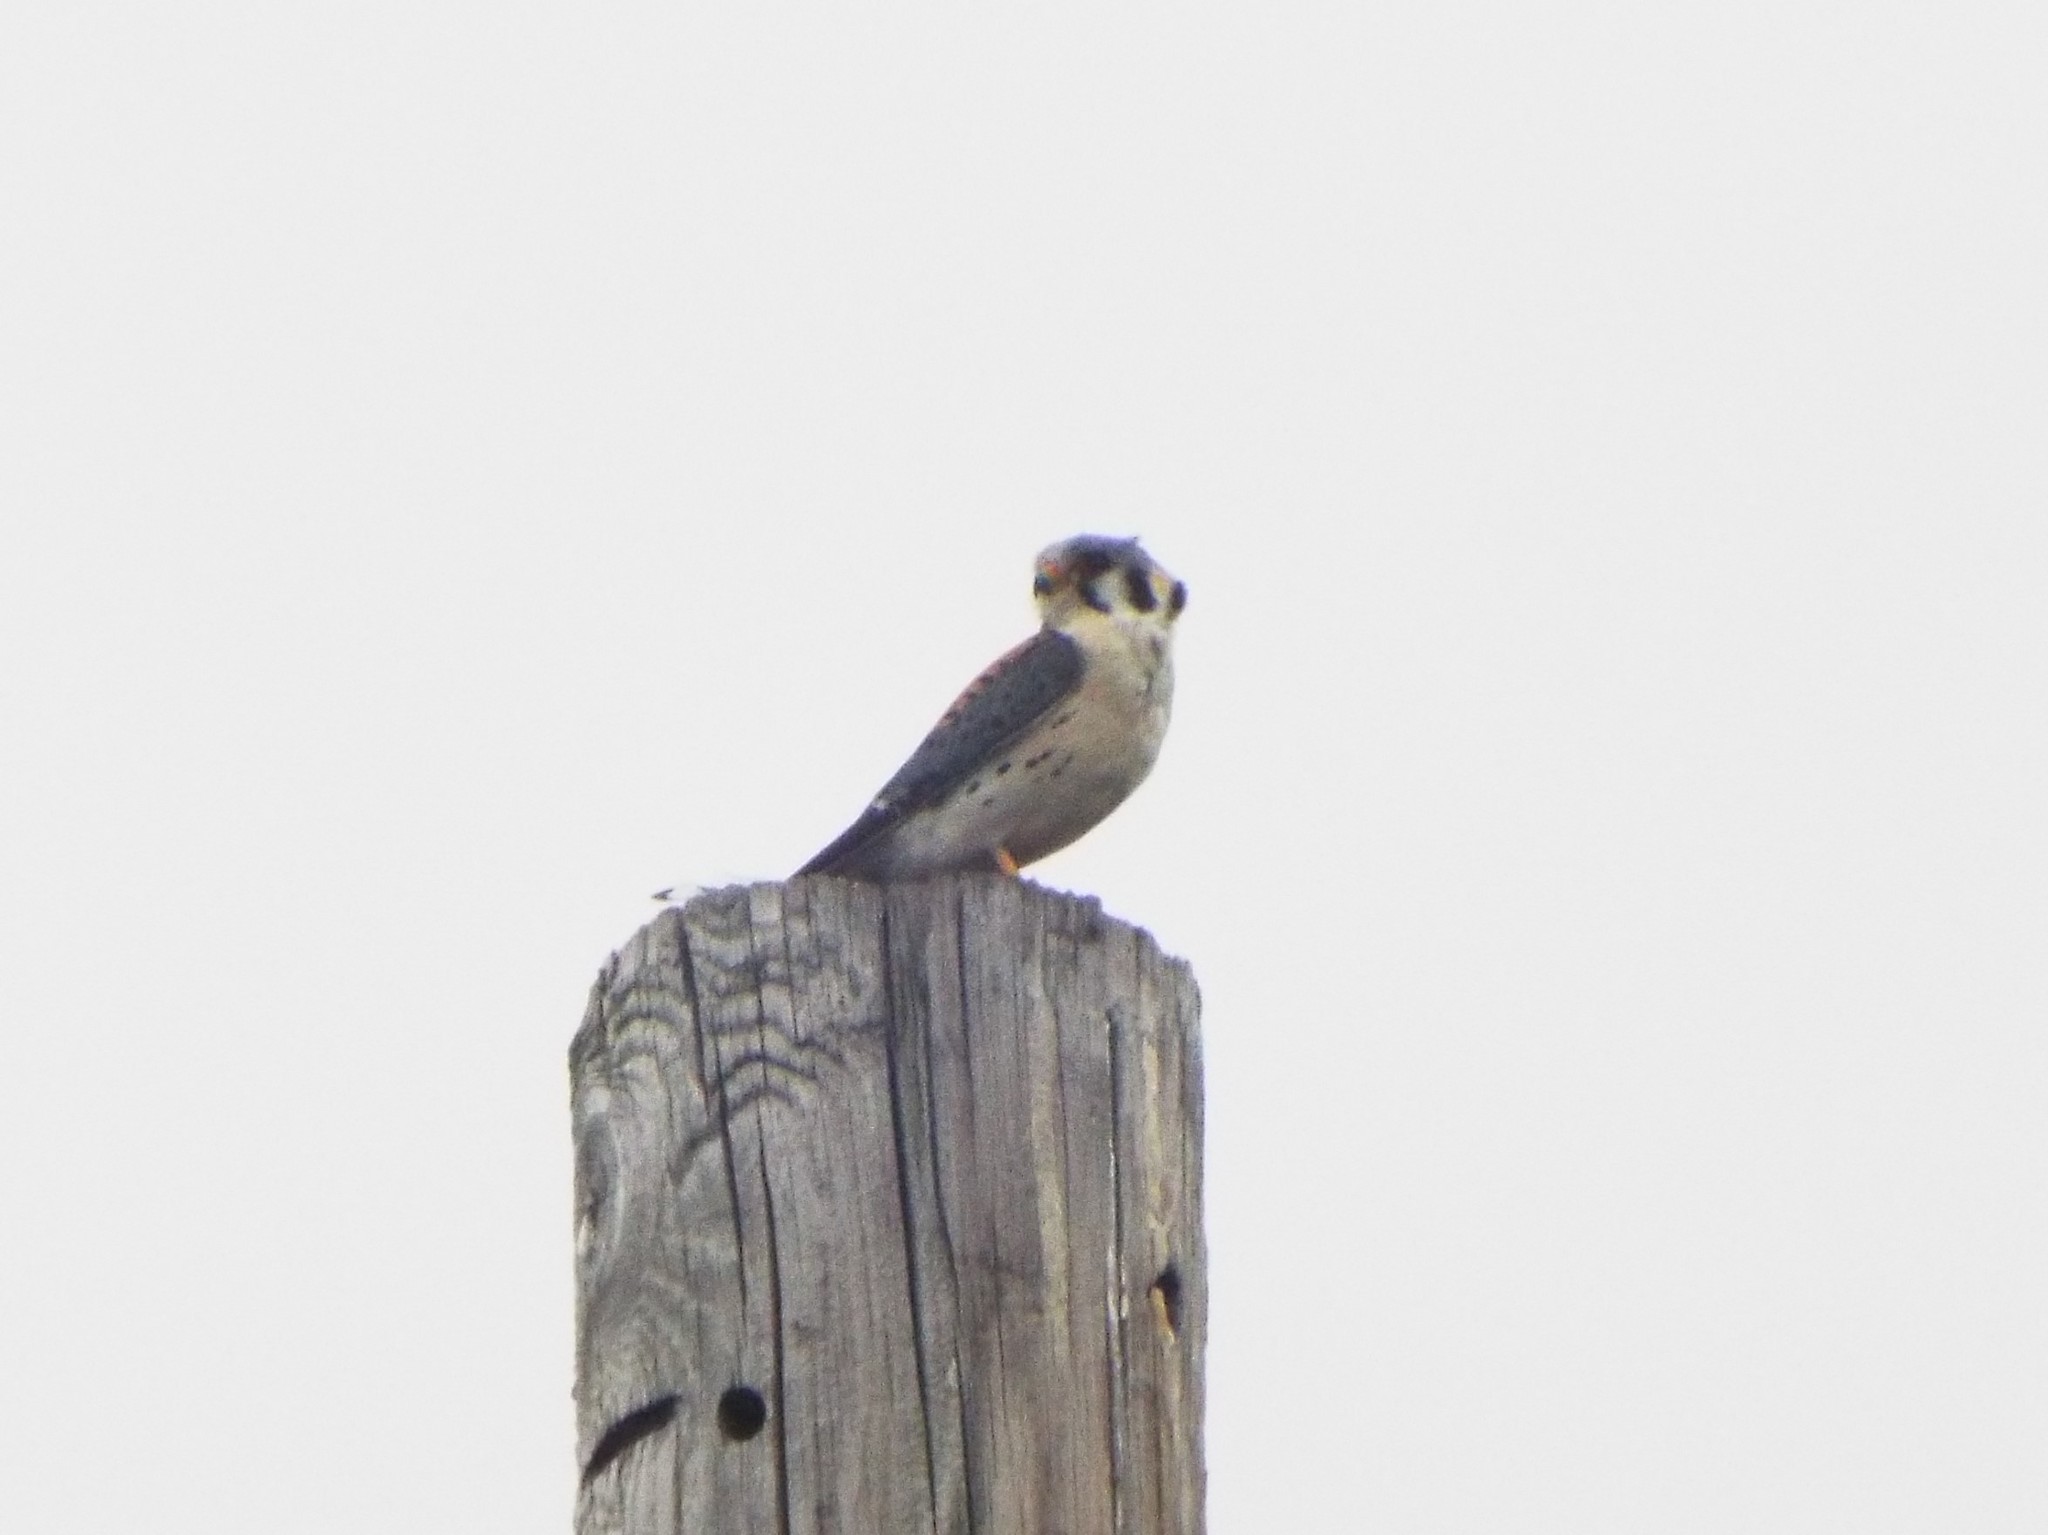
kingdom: Animalia
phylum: Chordata
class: Aves
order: Falconiformes
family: Falconidae
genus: Falco
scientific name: Falco sparverius
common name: American kestrel
